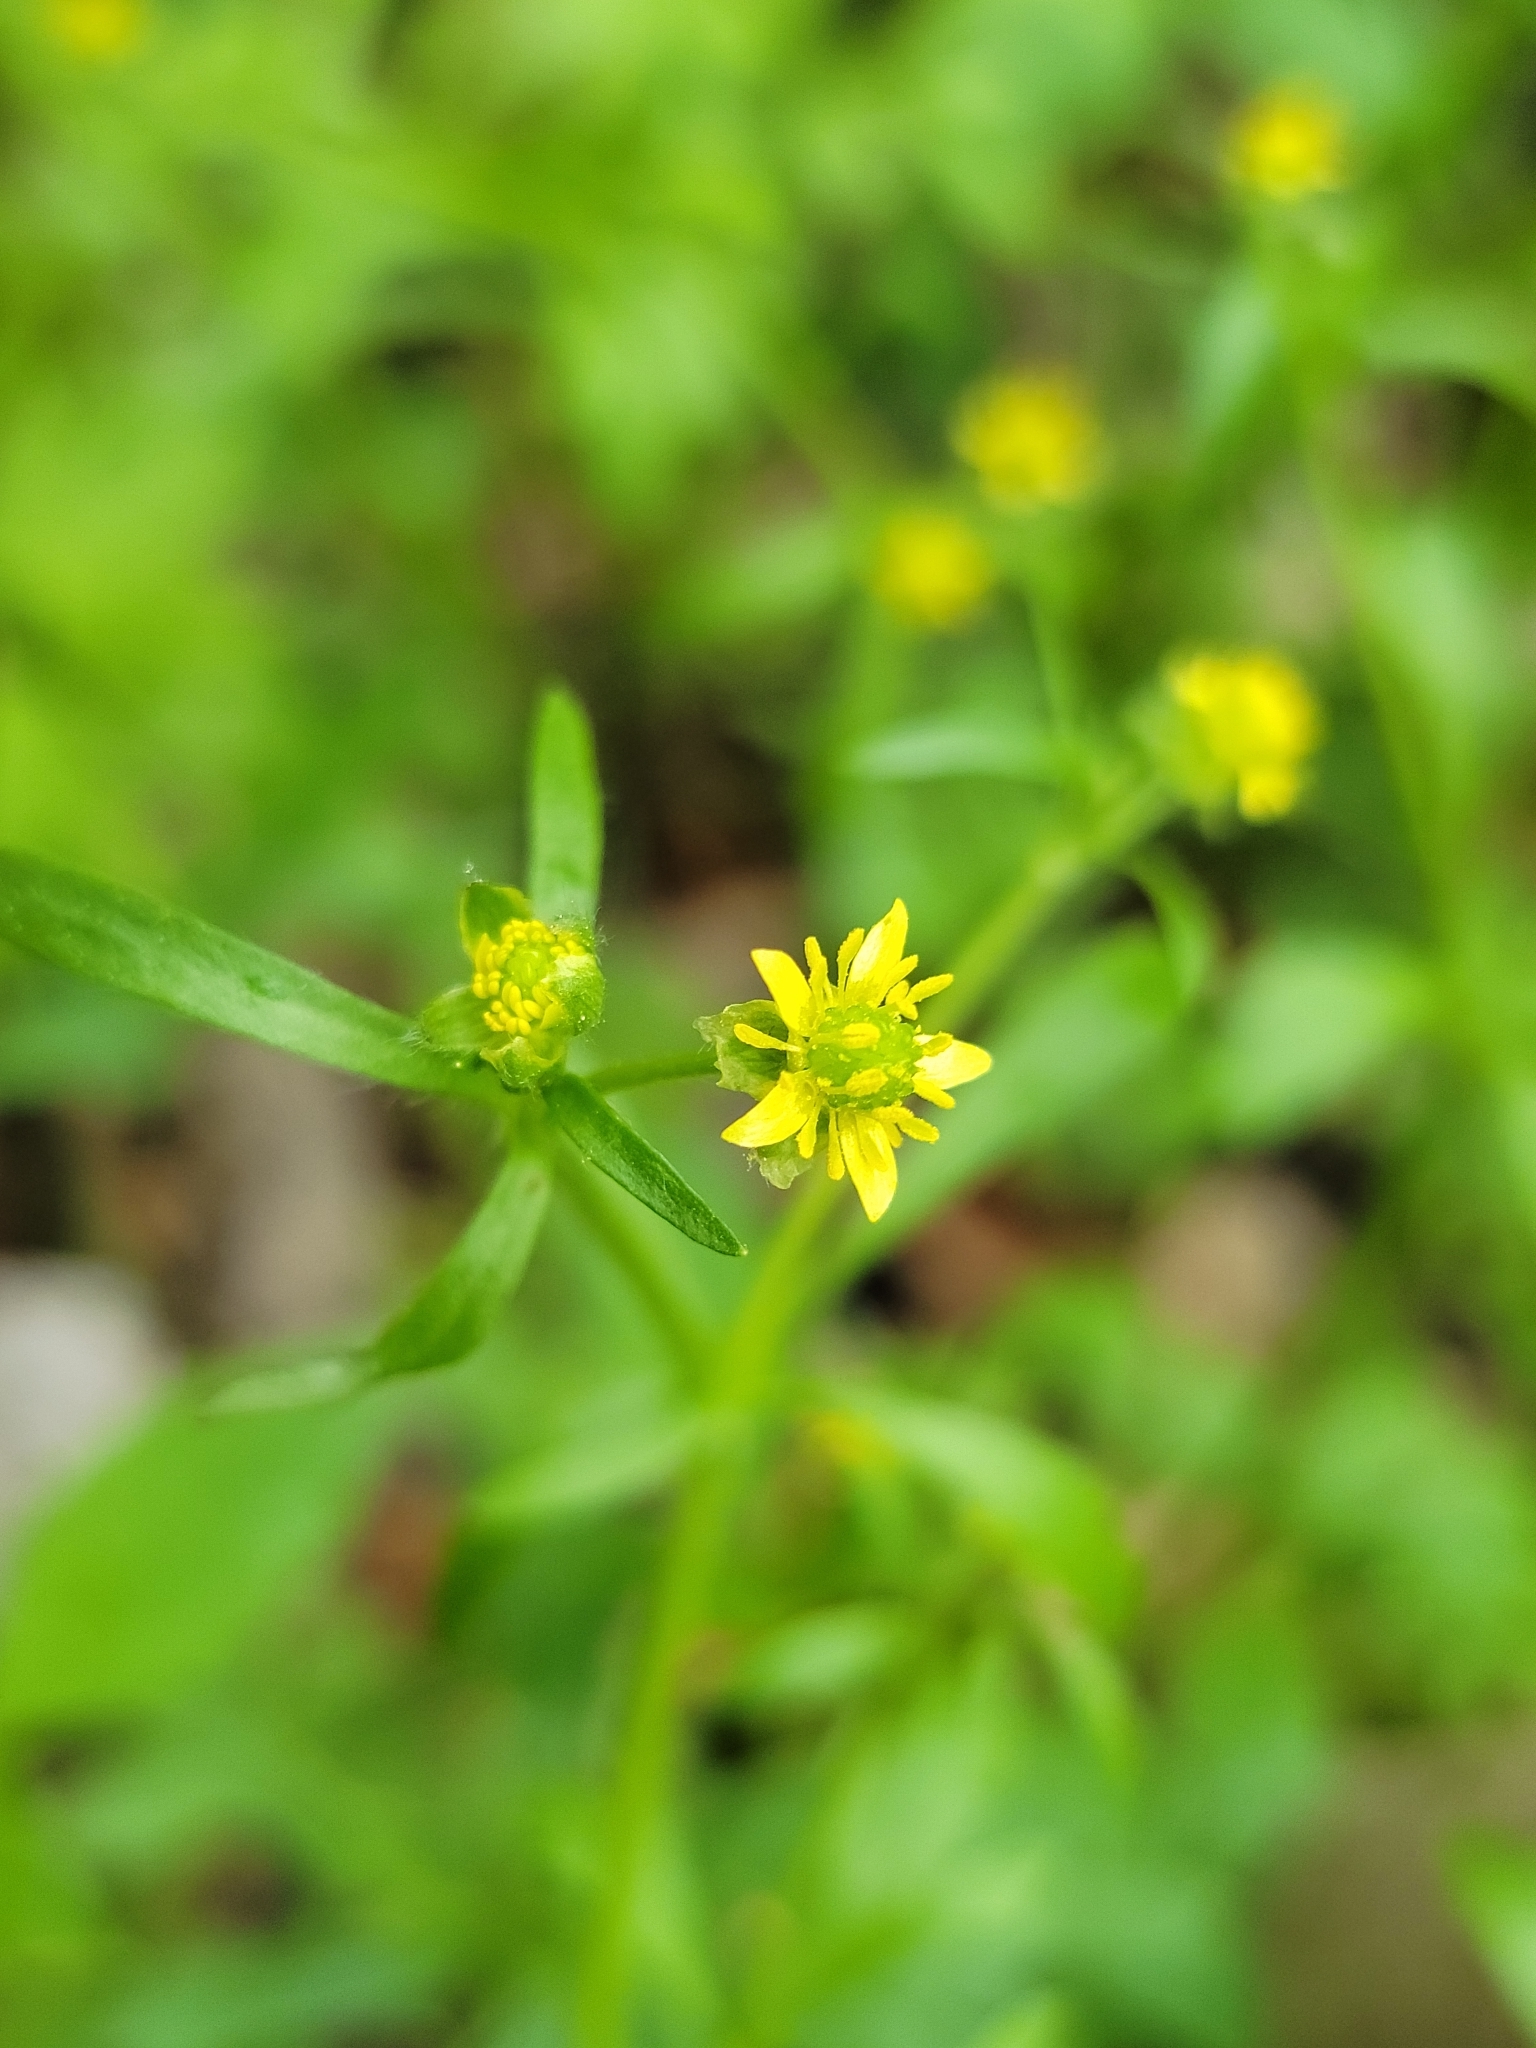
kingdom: Plantae
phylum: Tracheophyta
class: Magnoliopsida
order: Ranunculales
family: Ranunculaceae
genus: Ranunculus
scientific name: Ranunculus abortivus
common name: Early wood buttercup
